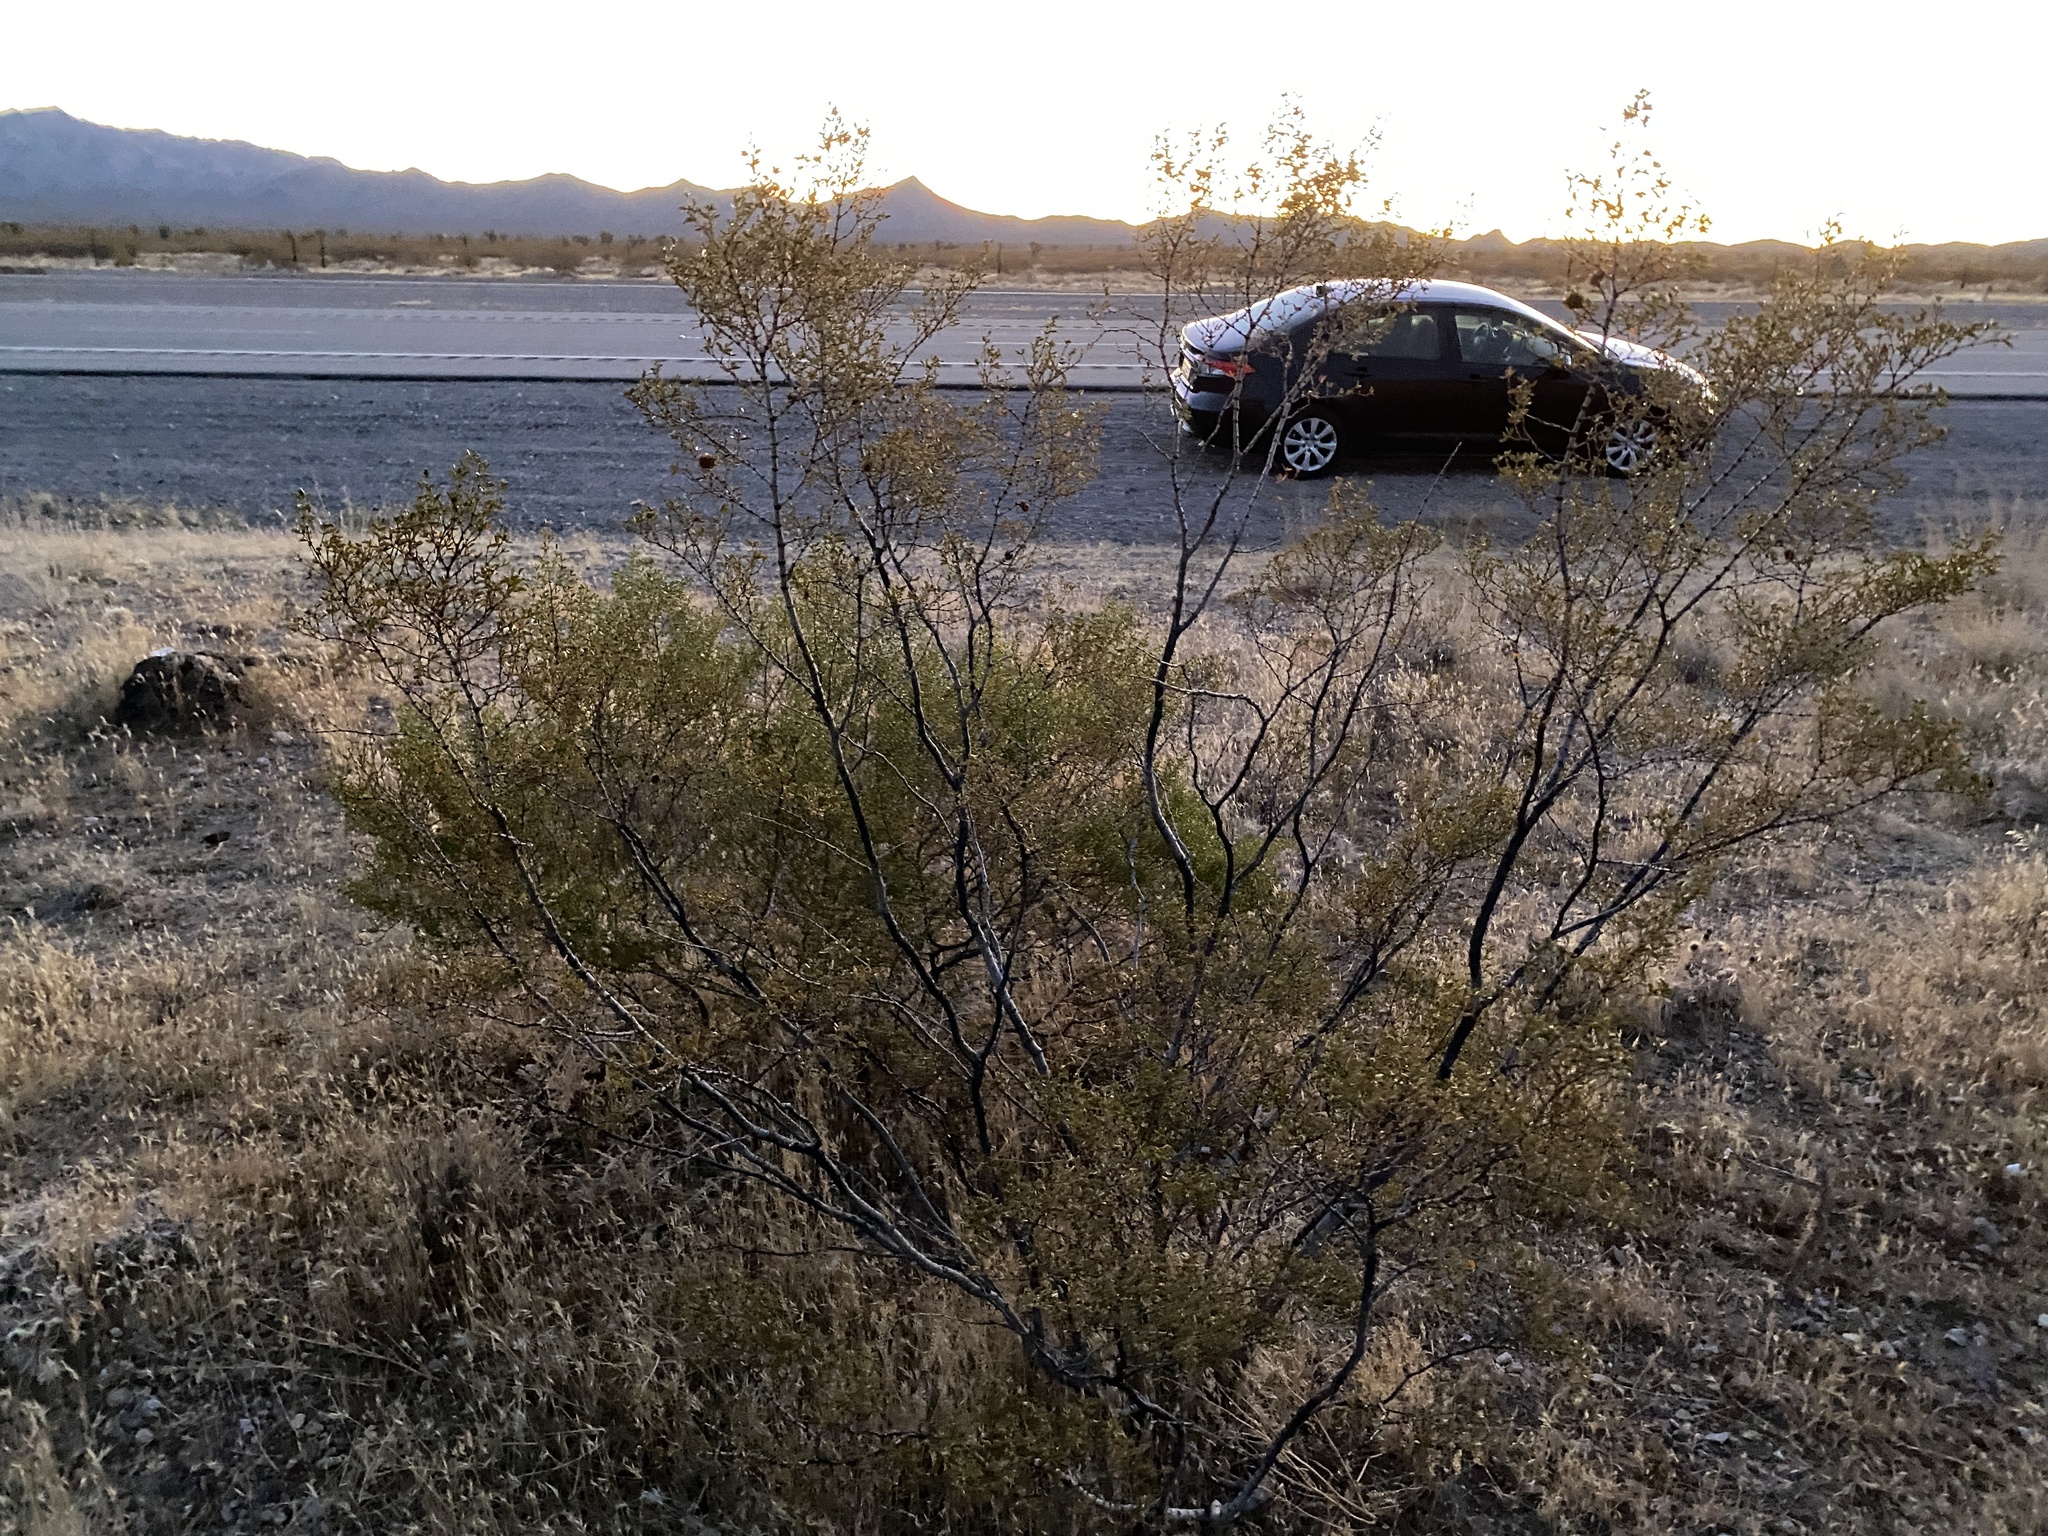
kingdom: Plantae
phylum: Tracheophyta
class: Magnoliopsida
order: Zygophyllales
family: Zygophyllaceae
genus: Larrea
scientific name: Larrea tridentata
